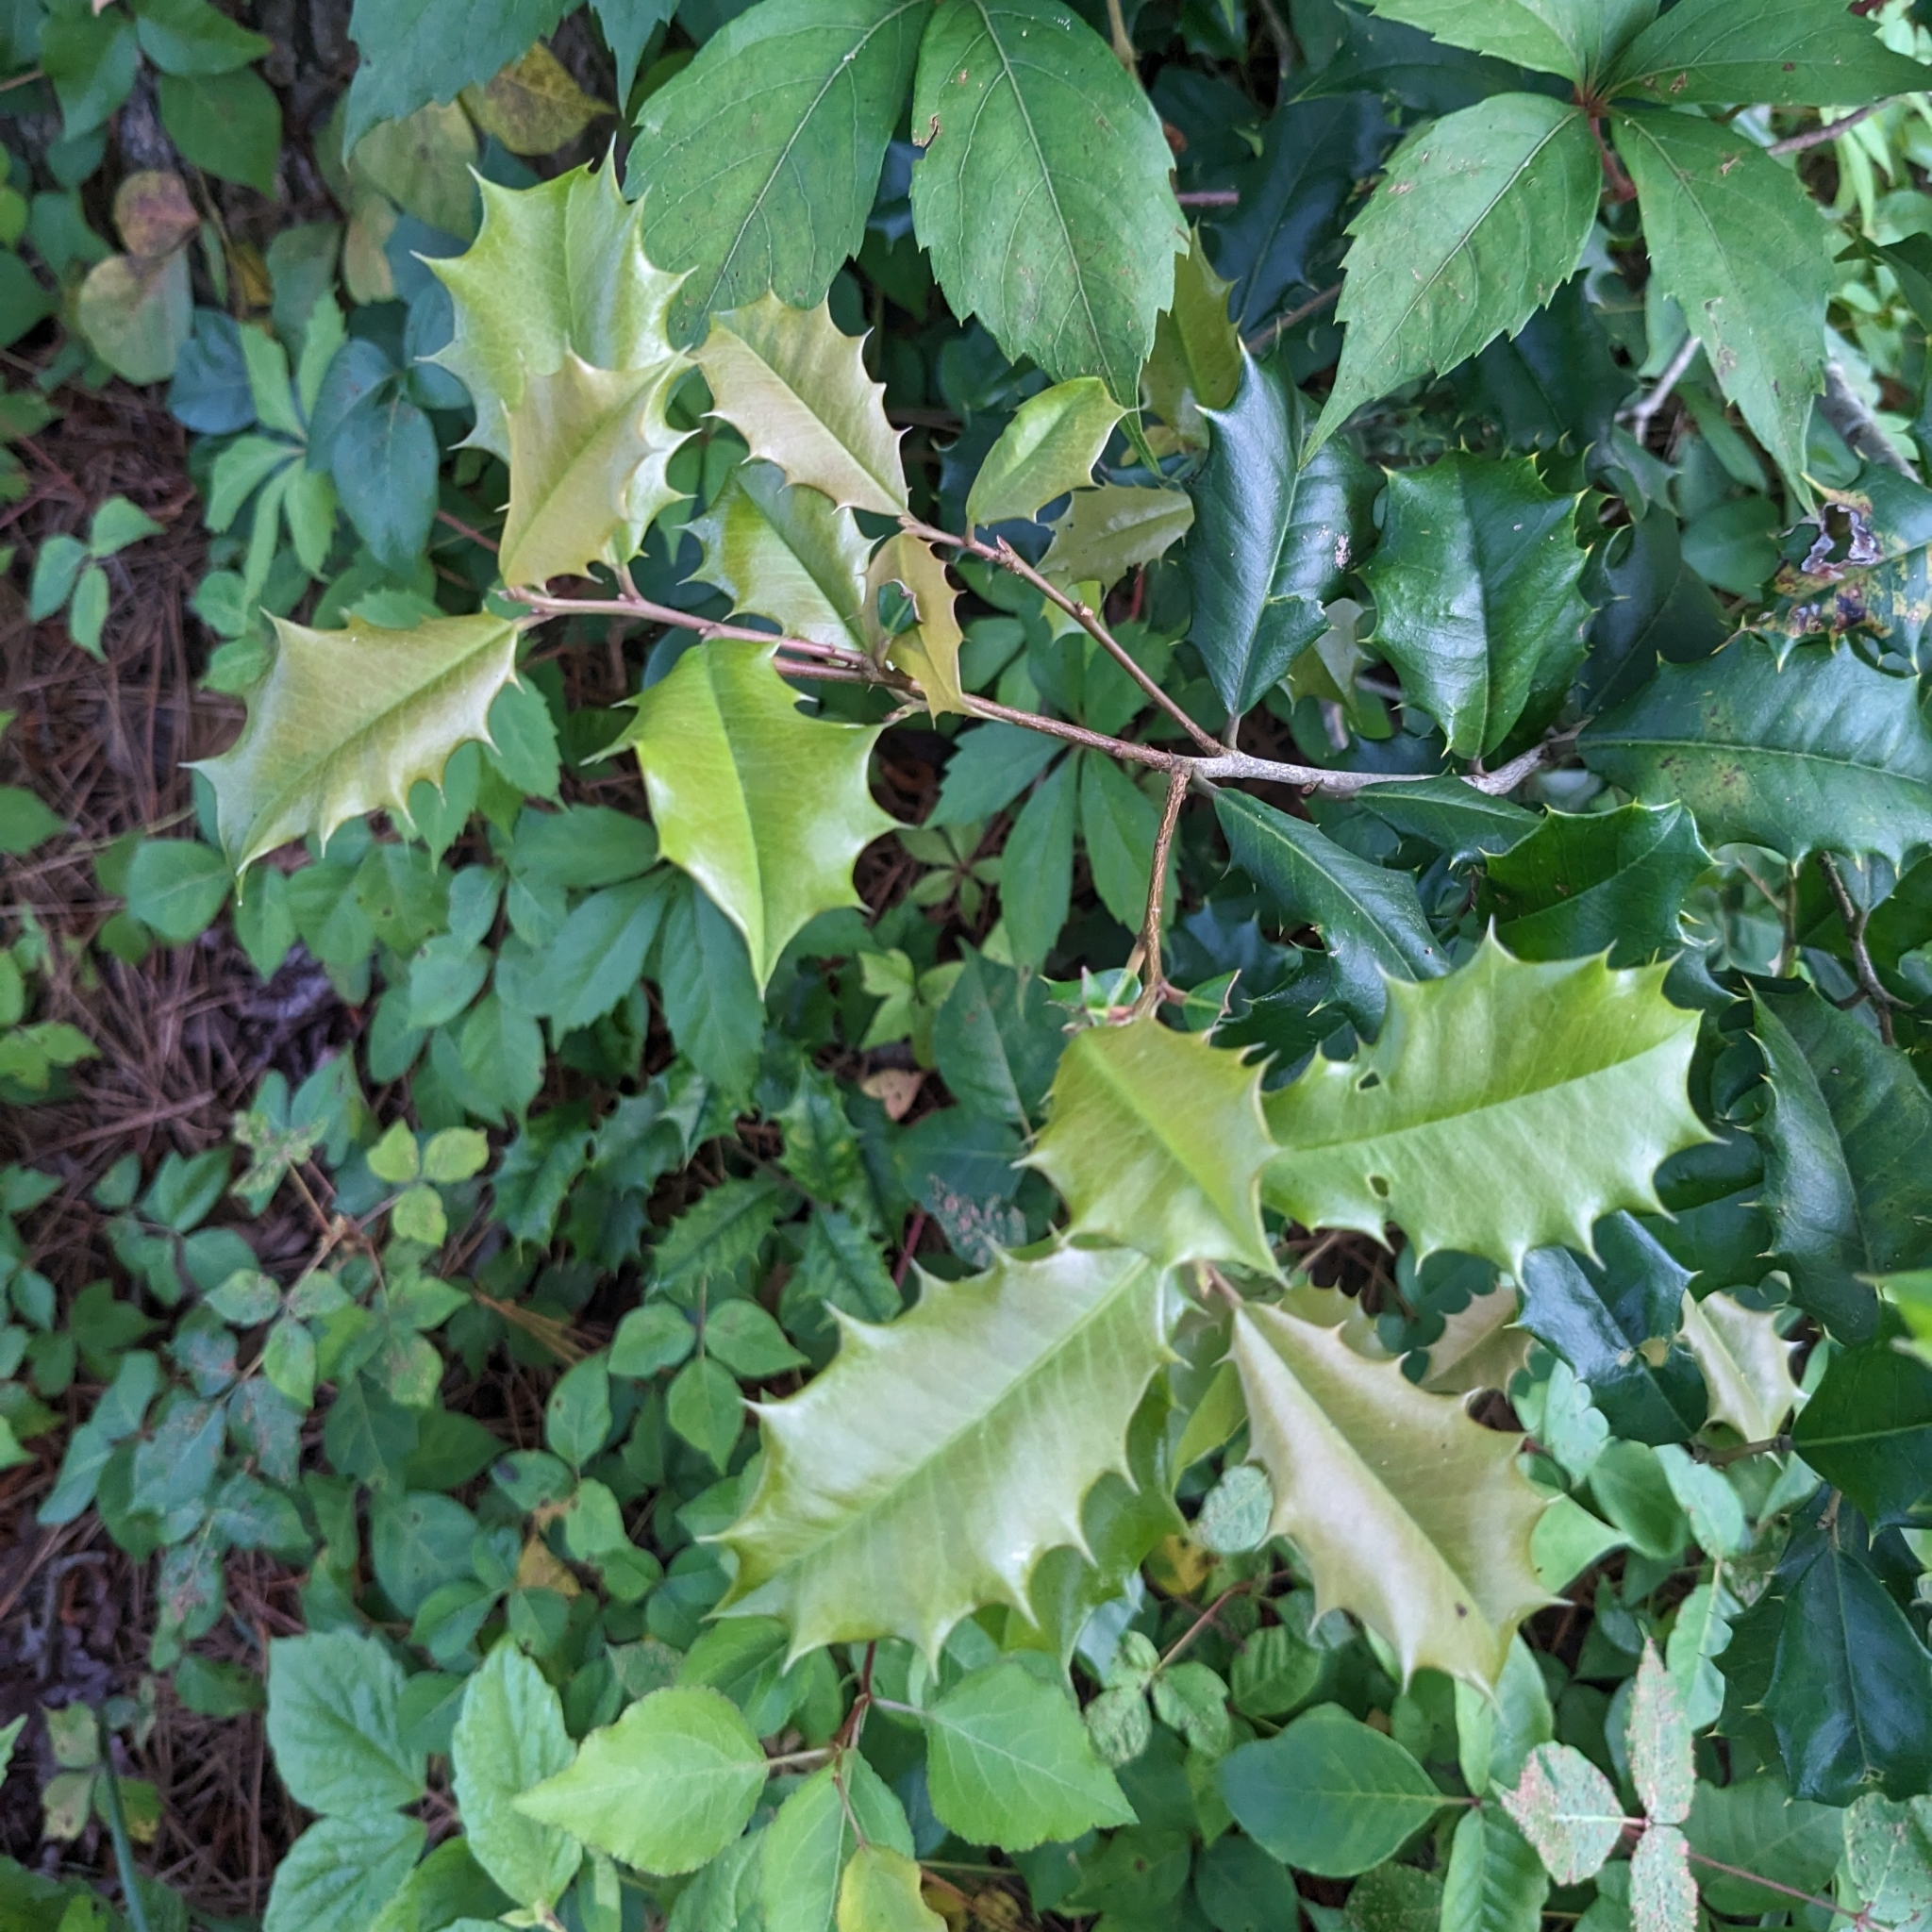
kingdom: Plantae
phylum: Tracheophyta
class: Magnoliopsida
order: Aquifoliales
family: Aquifoliaceae
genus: Ilex
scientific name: Ilex opaca
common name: American holly
